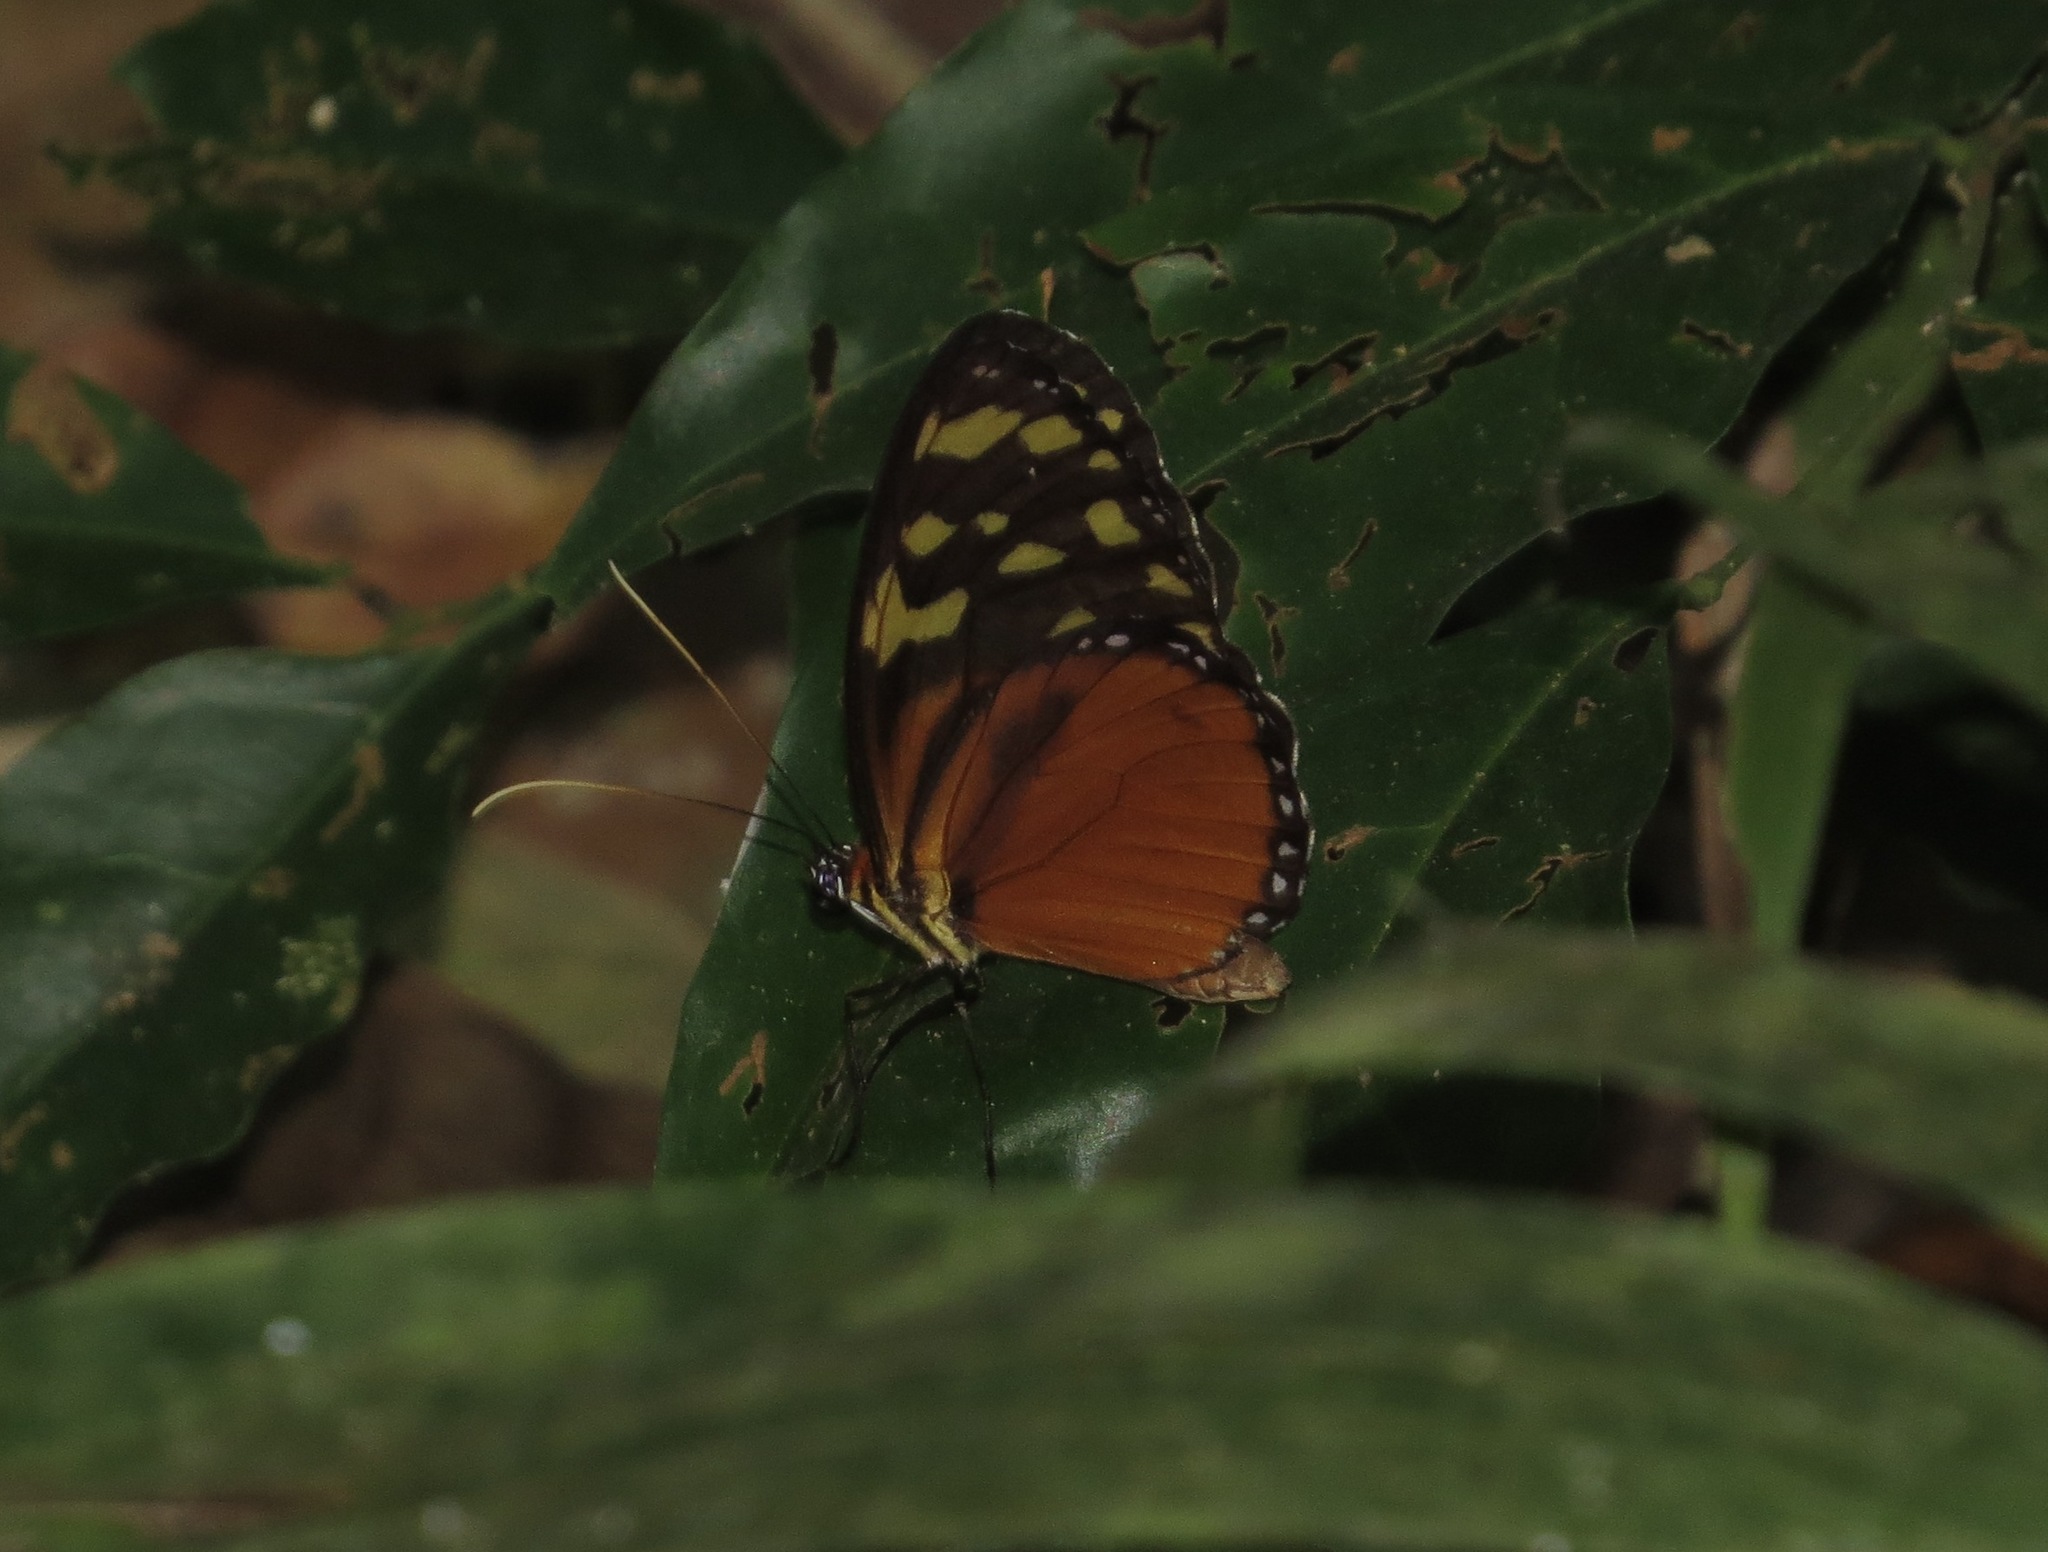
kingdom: Animalia
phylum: Arthropoda
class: Insecta
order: Lepidoptera
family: Nymphalidae
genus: Tithorea
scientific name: Tithorea harmonia
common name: Harmonia tigerwing
